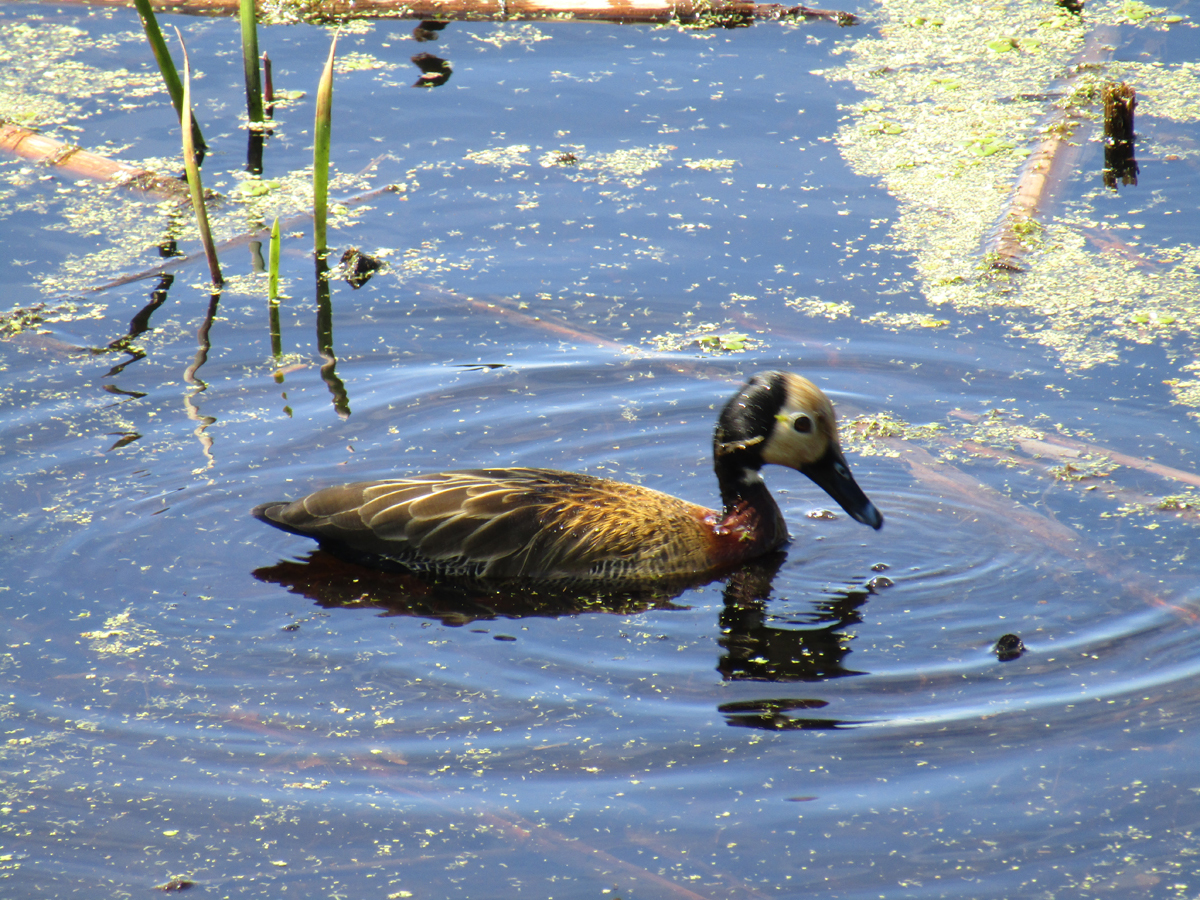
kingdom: Animalia
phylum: Chordata
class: Aves
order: Anseriformes
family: Anatidae
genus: Dendrocygna
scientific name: Dendrocygna viduata
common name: White-faced whistling duck
